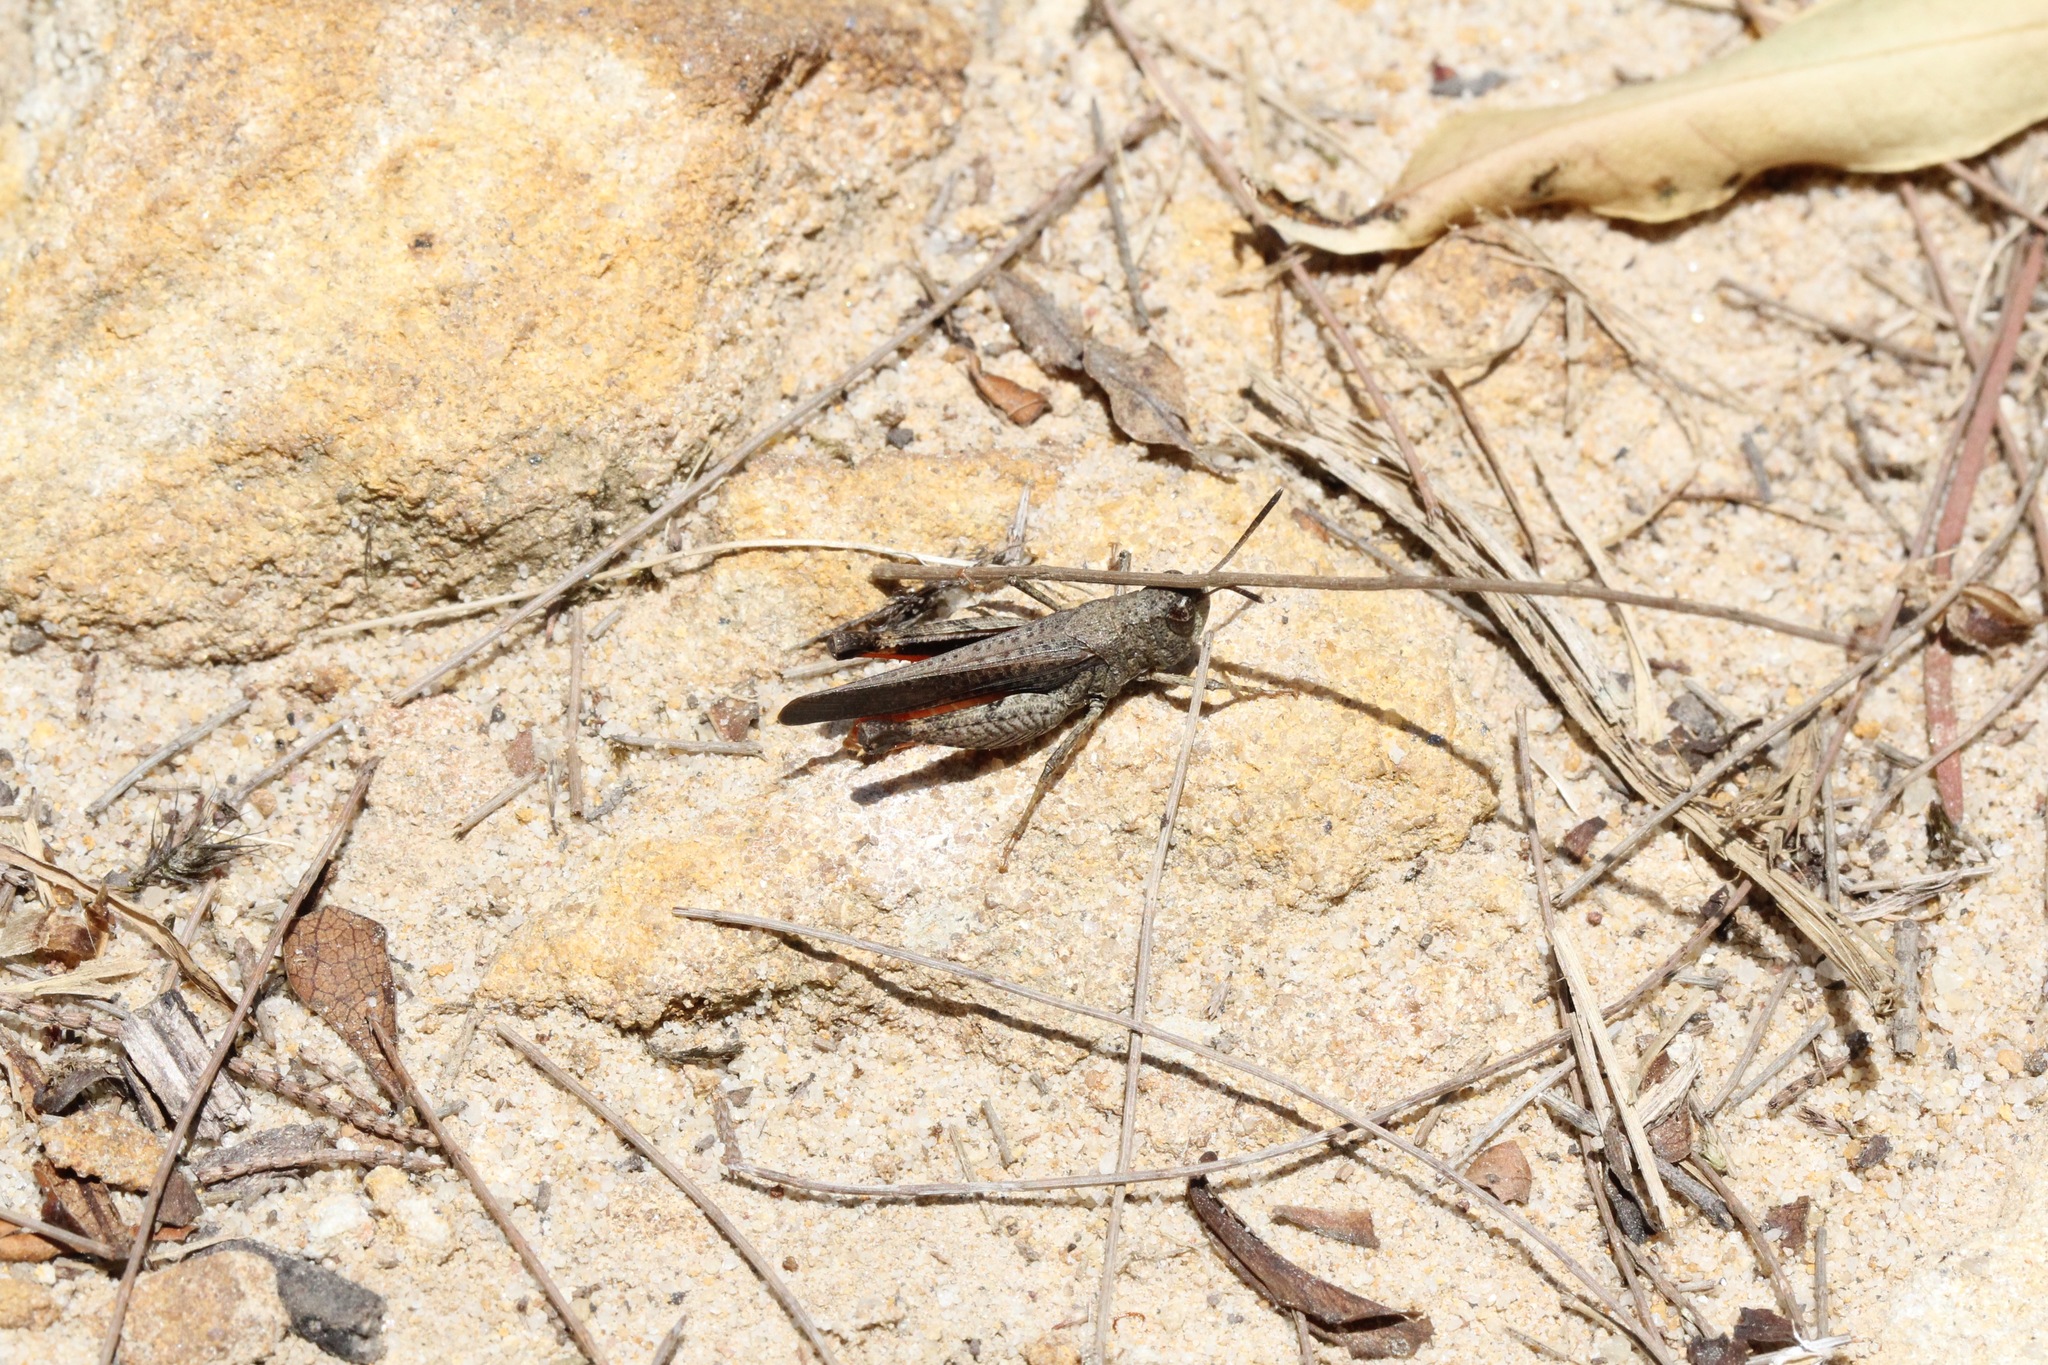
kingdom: Animalia
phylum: Arthropoda
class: Insecta
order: Orthoptera
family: Acrididae
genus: Cryptobothrus
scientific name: Cryptobothrus chrysophorus
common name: Golden bandwing
